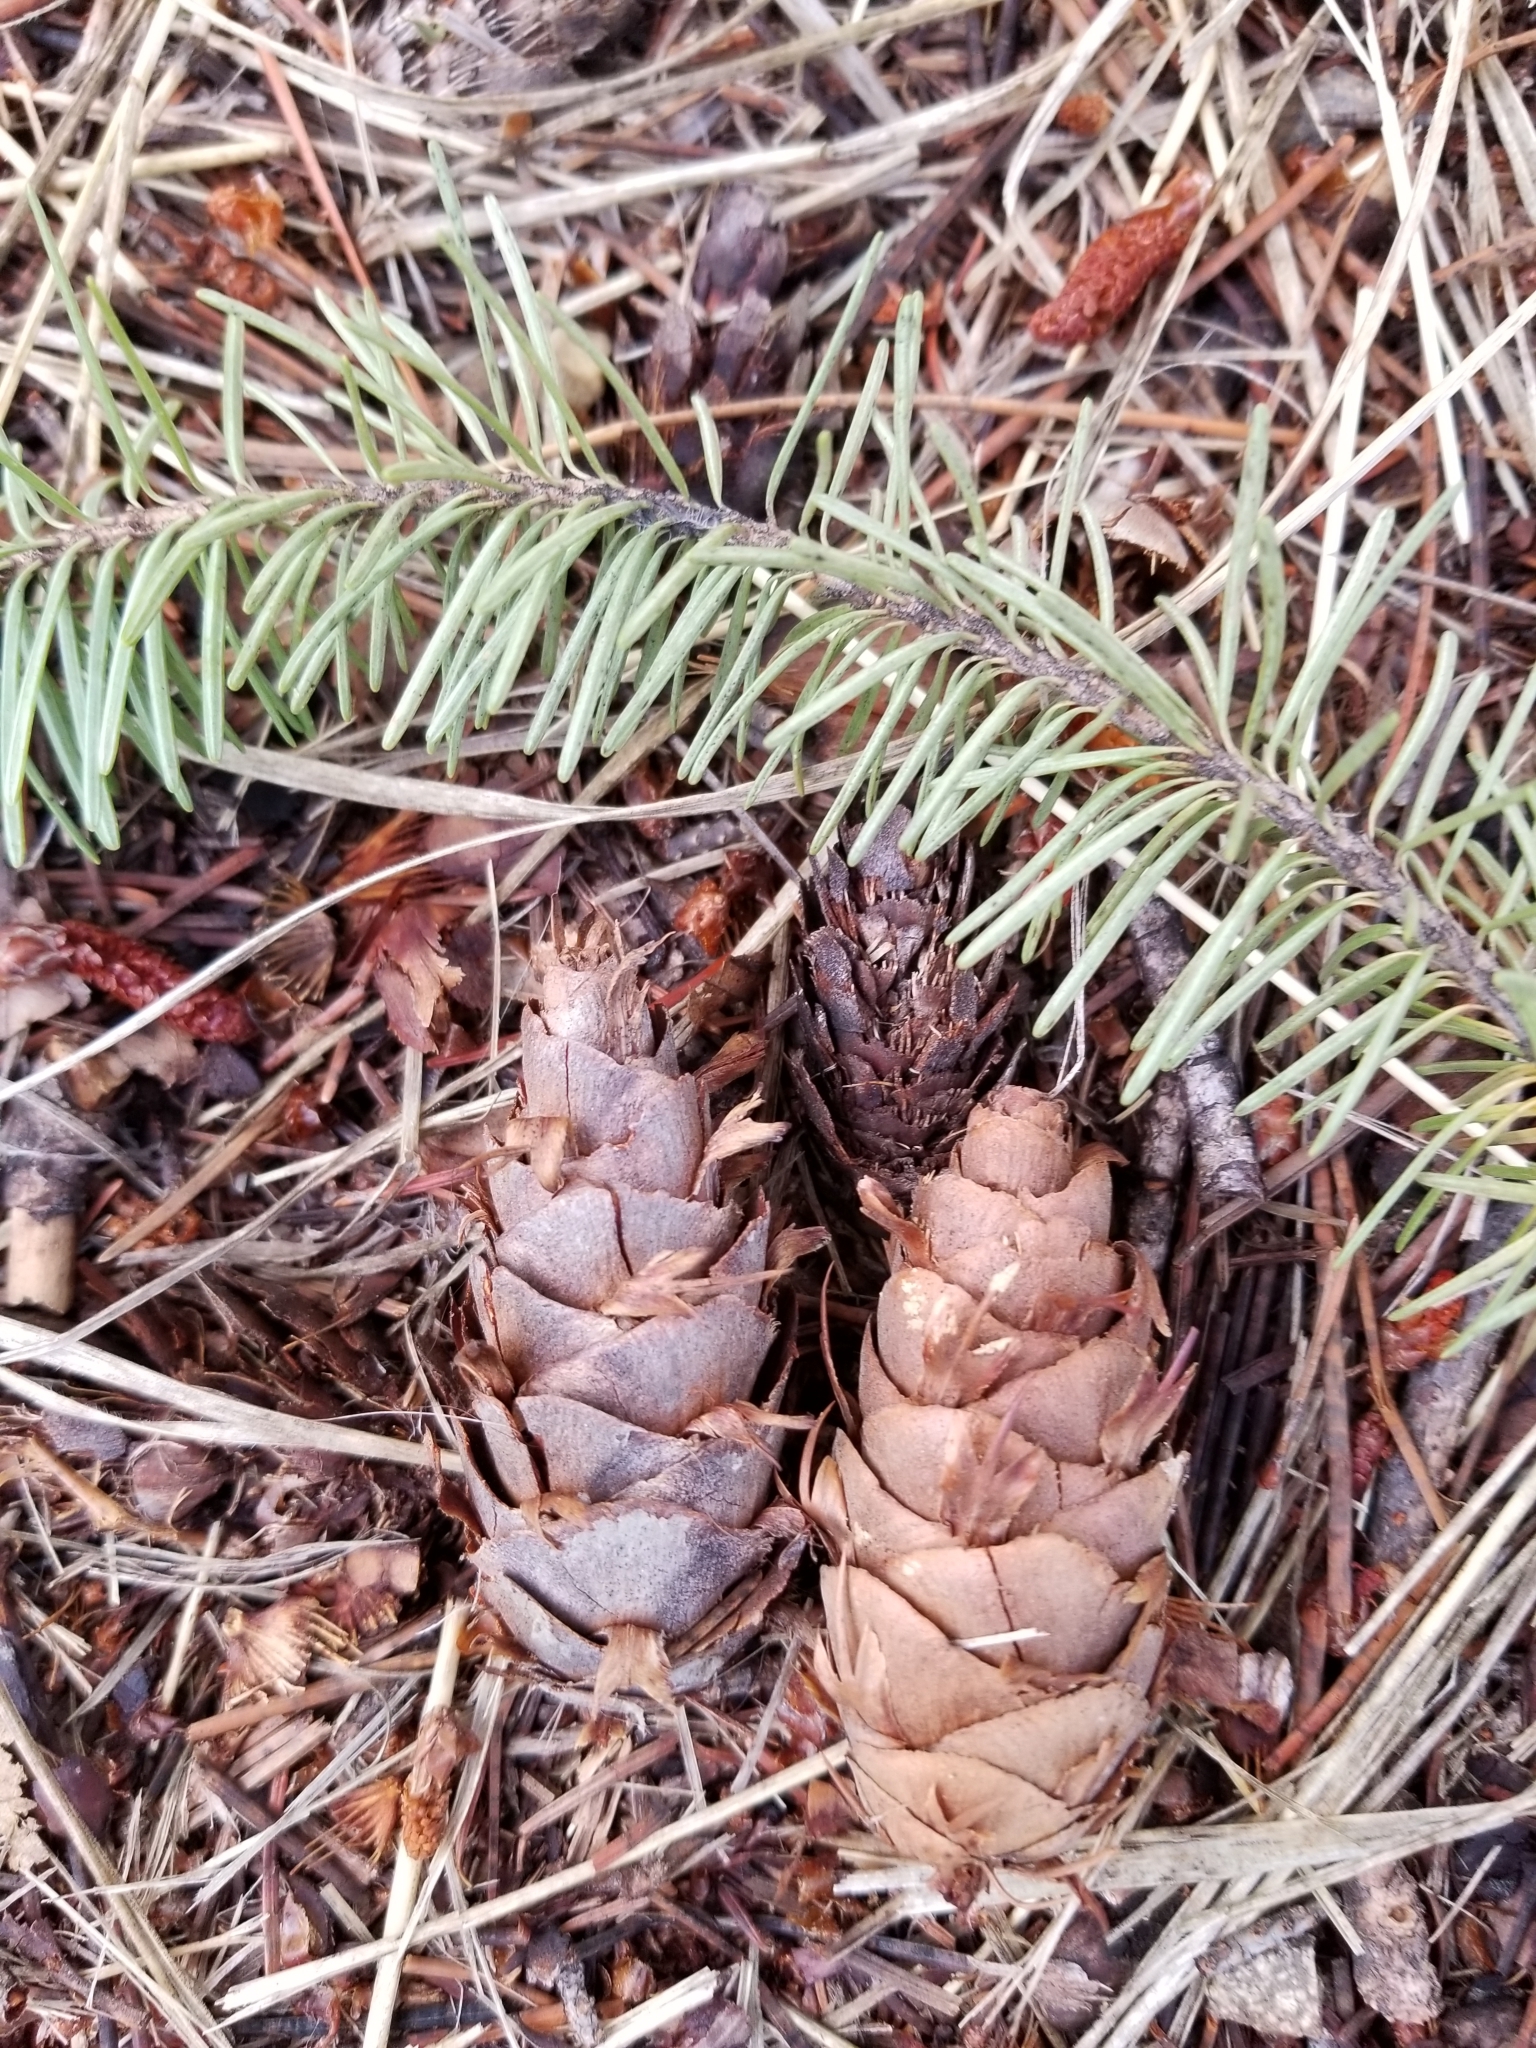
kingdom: Plantae
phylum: Tracheophyta
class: Pinopsida
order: Pinales
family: Pinaceae
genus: Pseudotsuga
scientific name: Pseudotsuga menziesii
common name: Douglas fir
